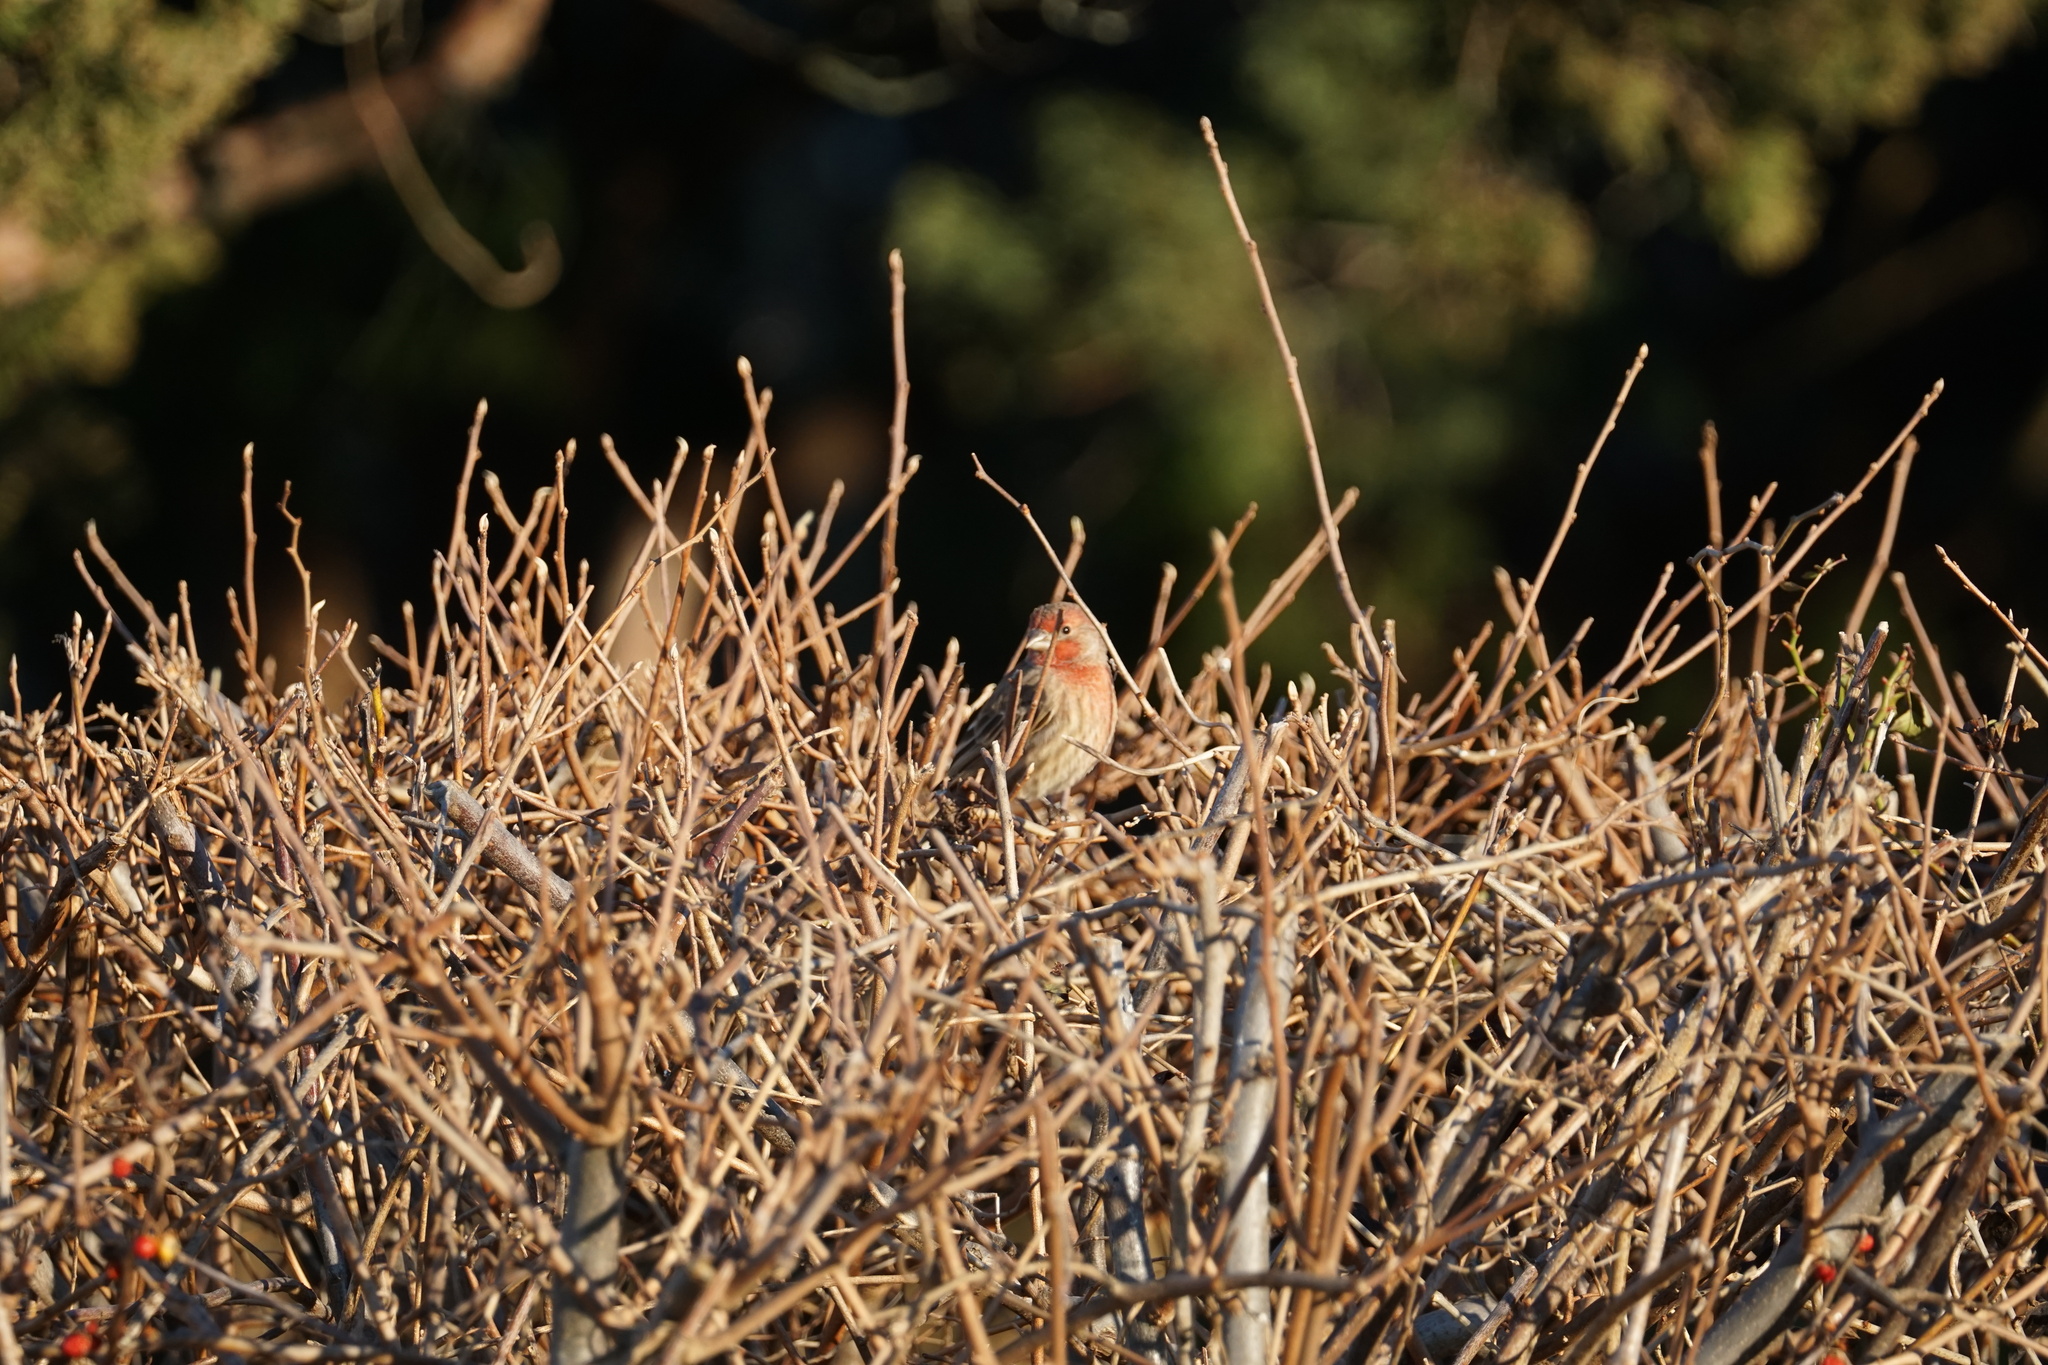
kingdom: Animalia
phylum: Chordata
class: Aves
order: Passeriformes
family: Fringillidae
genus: Haemorhous
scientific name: Haemorhous mexicanus
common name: House finch
